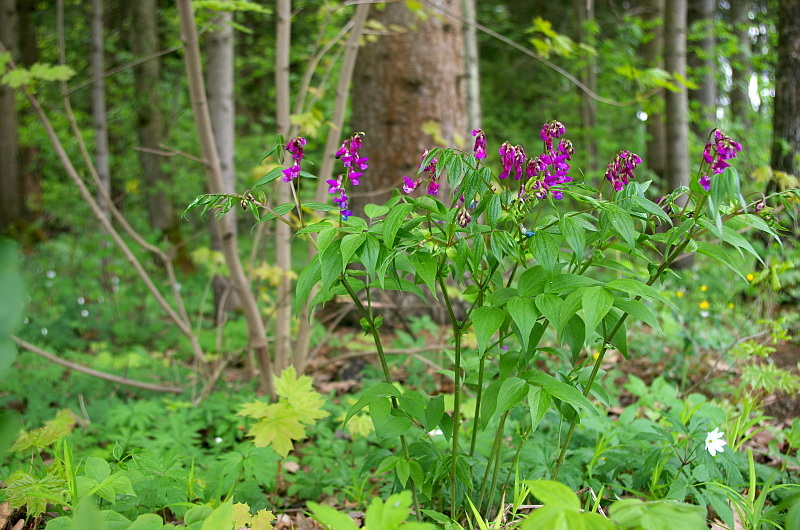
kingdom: Plantae
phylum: Tracheophyta
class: Magnoliopsida
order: Fabales
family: Fabaceae
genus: Lathyrus
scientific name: Lathyrus vernus
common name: Spring pea
